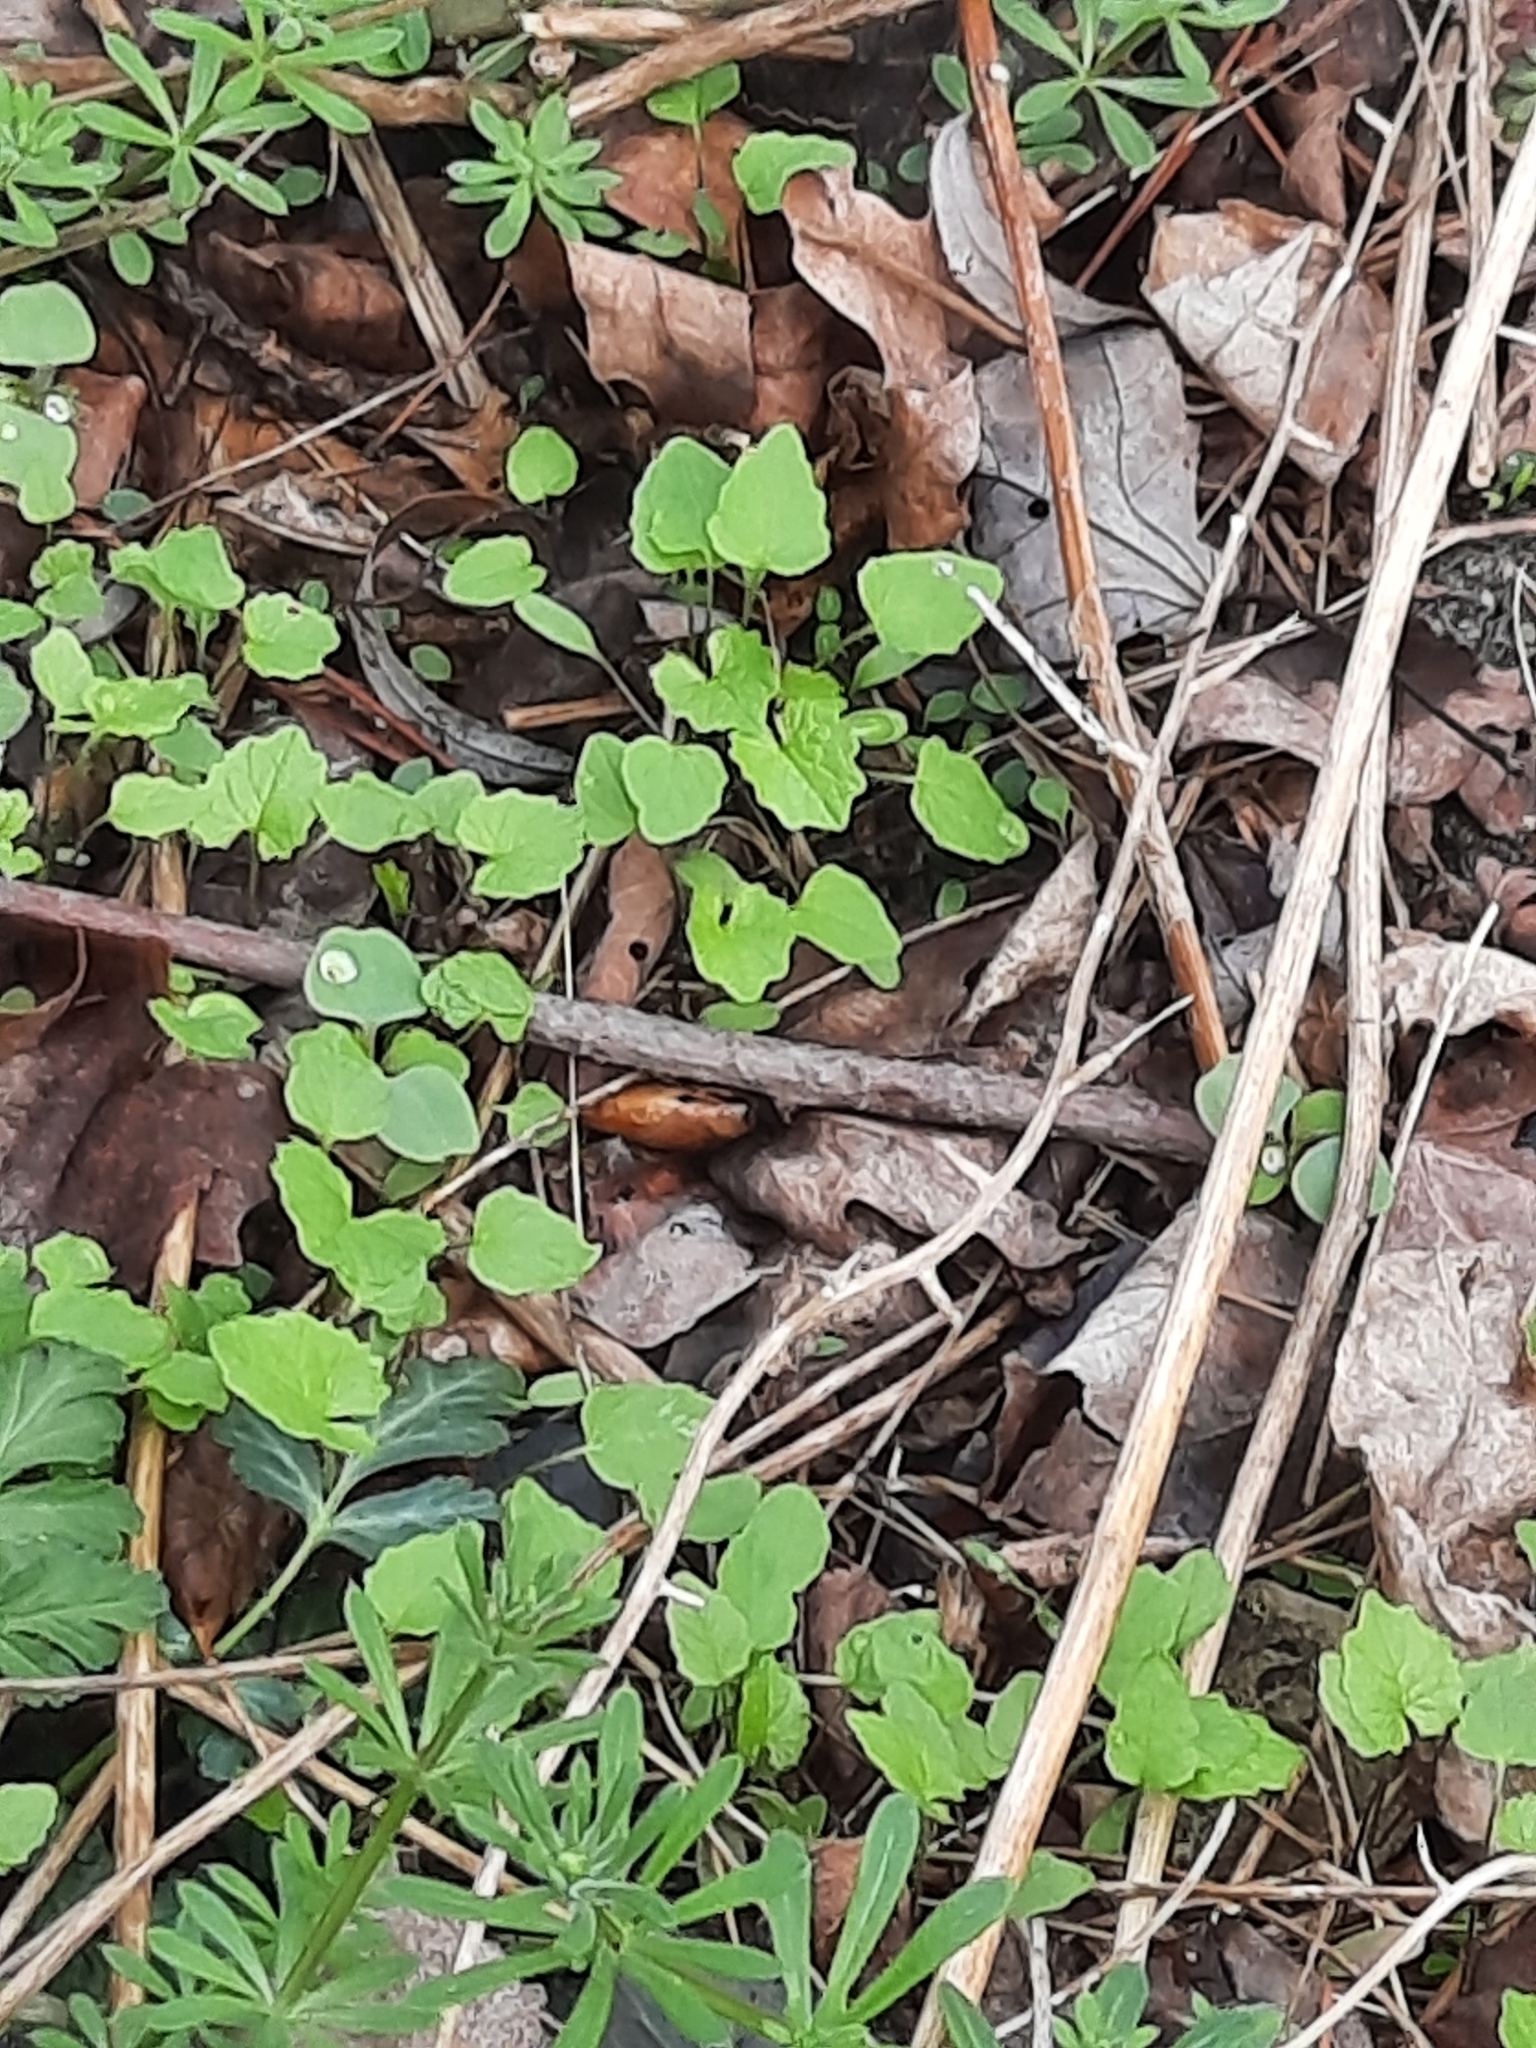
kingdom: Plantae
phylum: Tracheophyta
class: Magnoliopsida
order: Brassicales
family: Brassicaceae
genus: Alliaria
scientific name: Alliaria petiolata
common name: Garlic mustard
